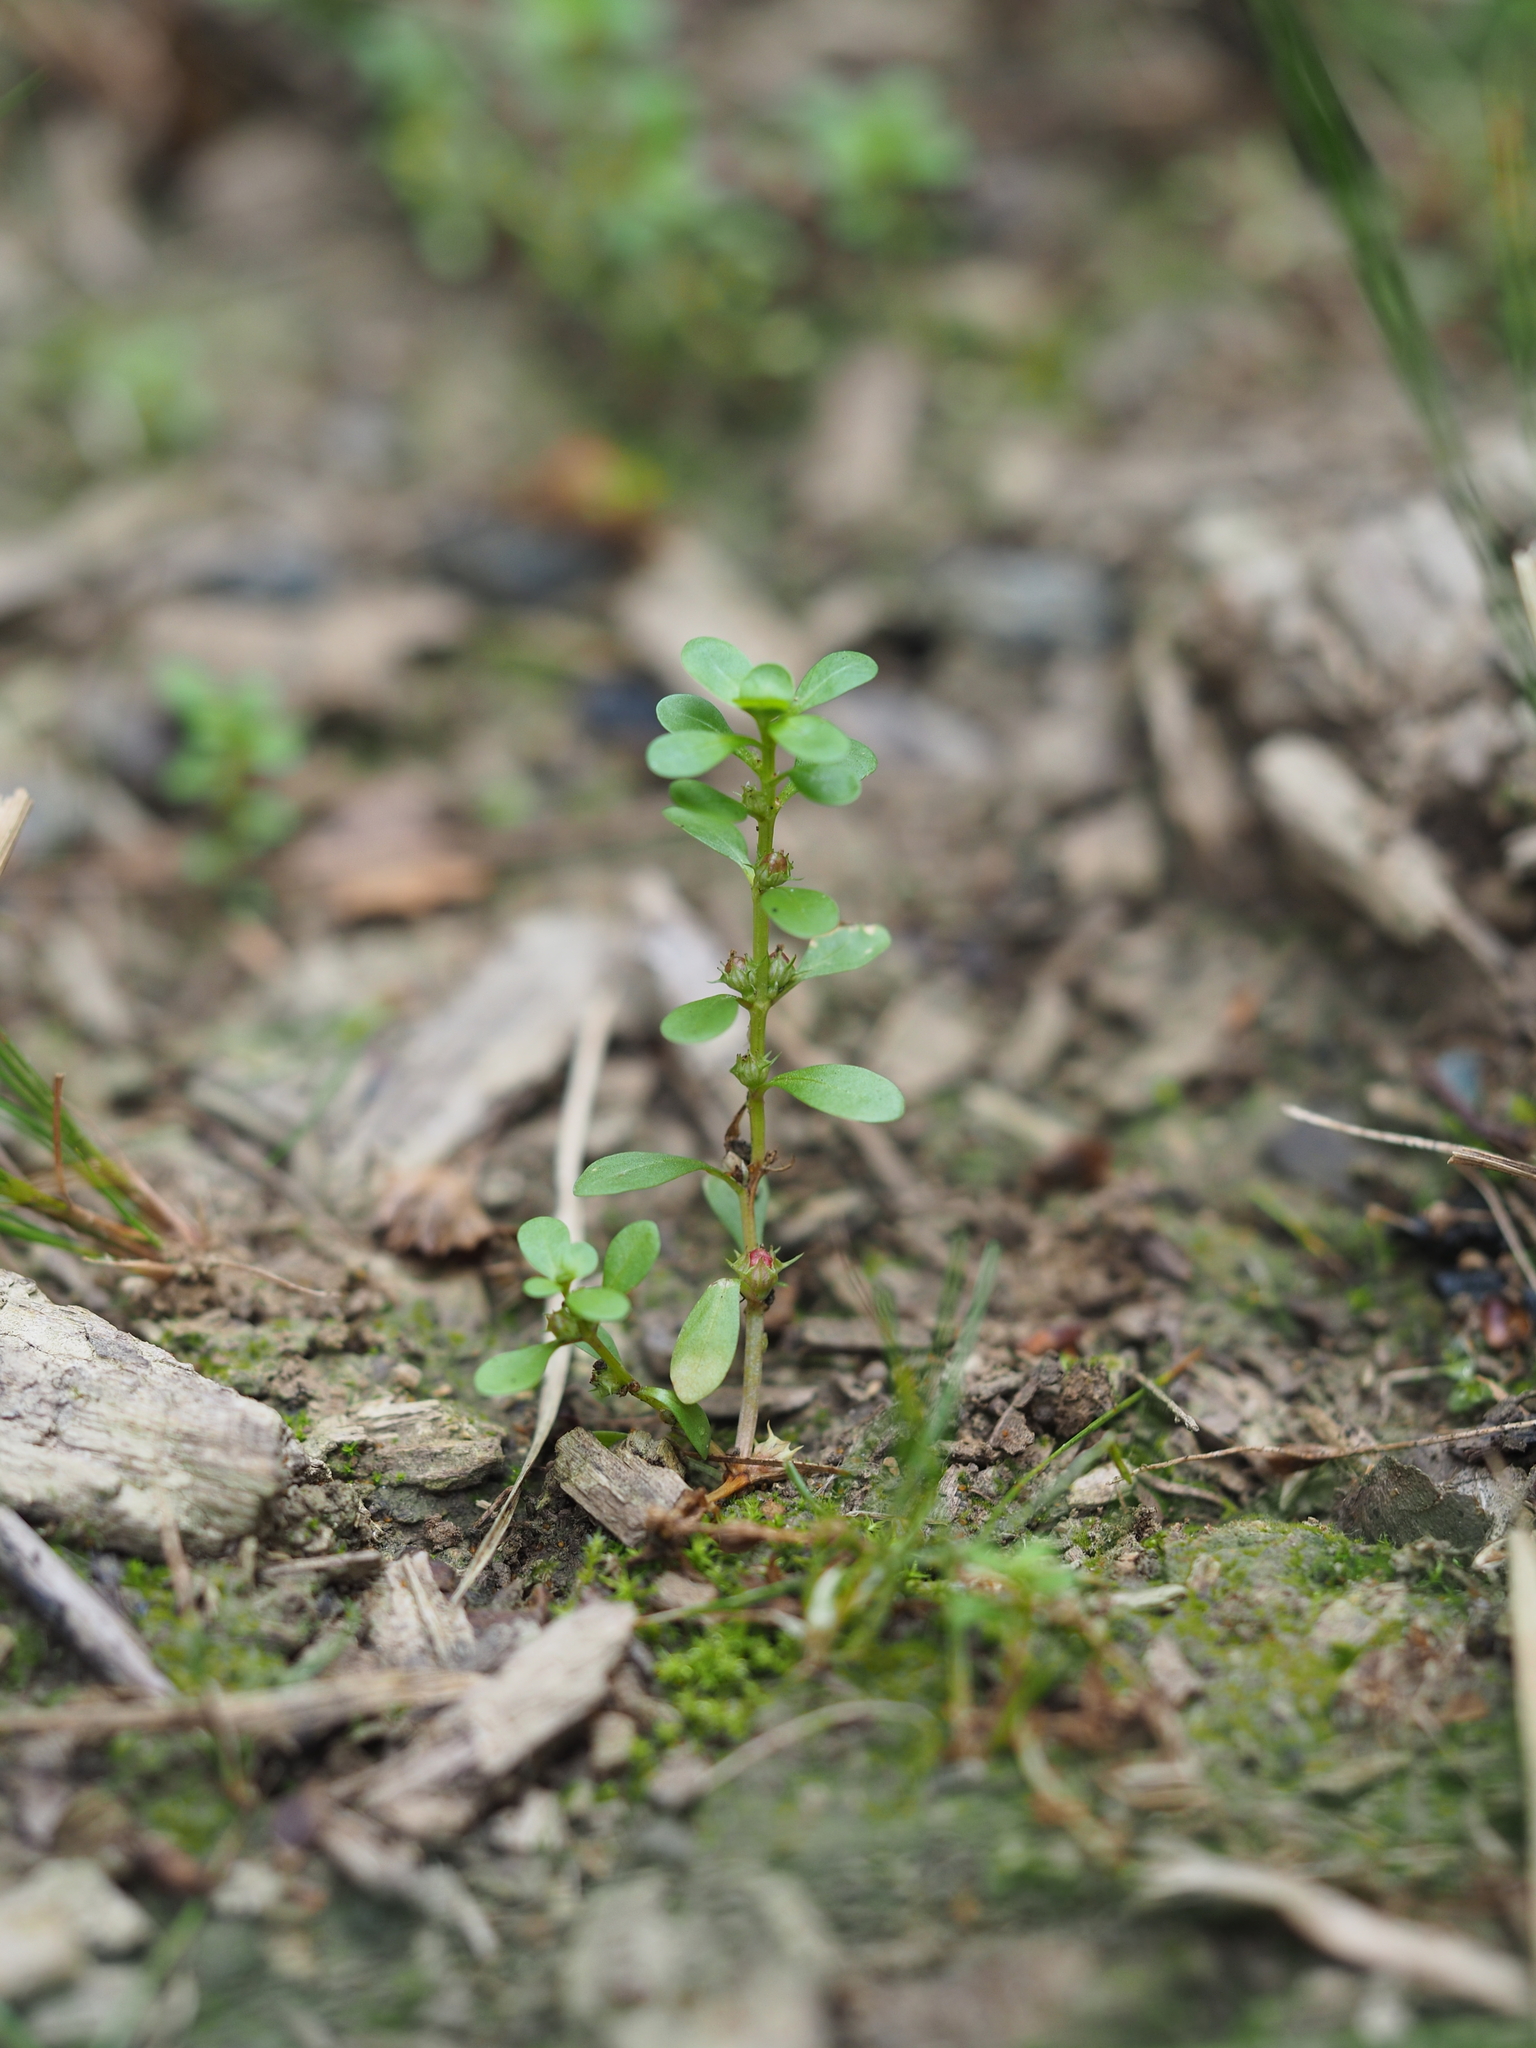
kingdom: Plantae
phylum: Tracheophyta
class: Magnoliopsida
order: Myrtales
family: Lythraceae
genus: Lythrum
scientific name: Lythrum portula
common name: Water purslane
